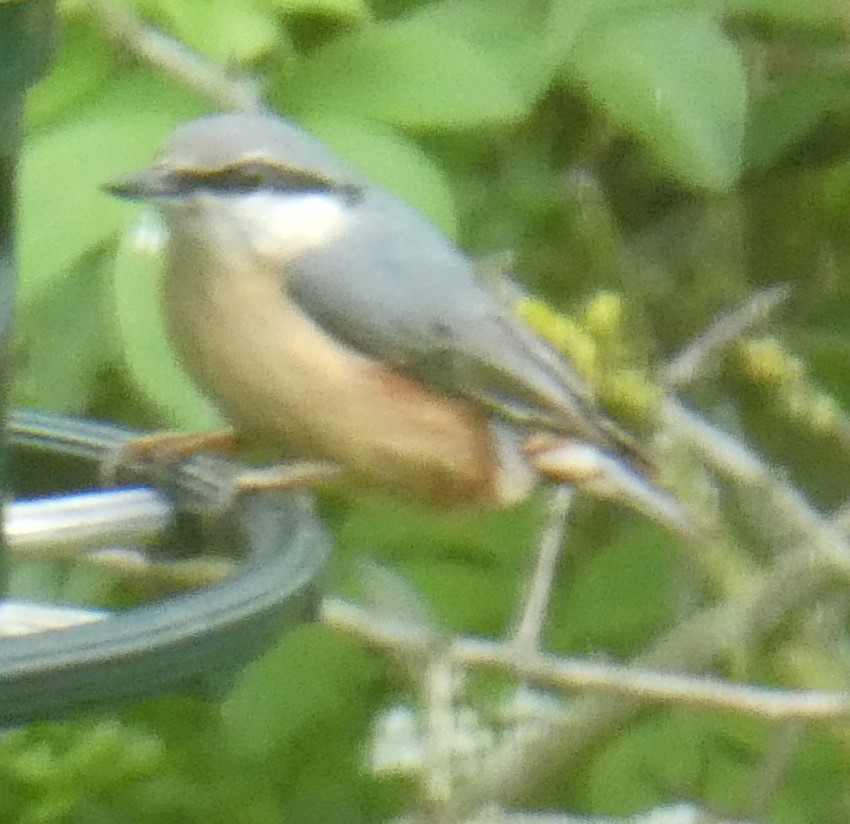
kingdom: Animalia
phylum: Chordata
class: Aves
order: Passeriformes
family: Sittidae
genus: Sitta
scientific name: Sitta europaea
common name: Eurasian nuthatch
